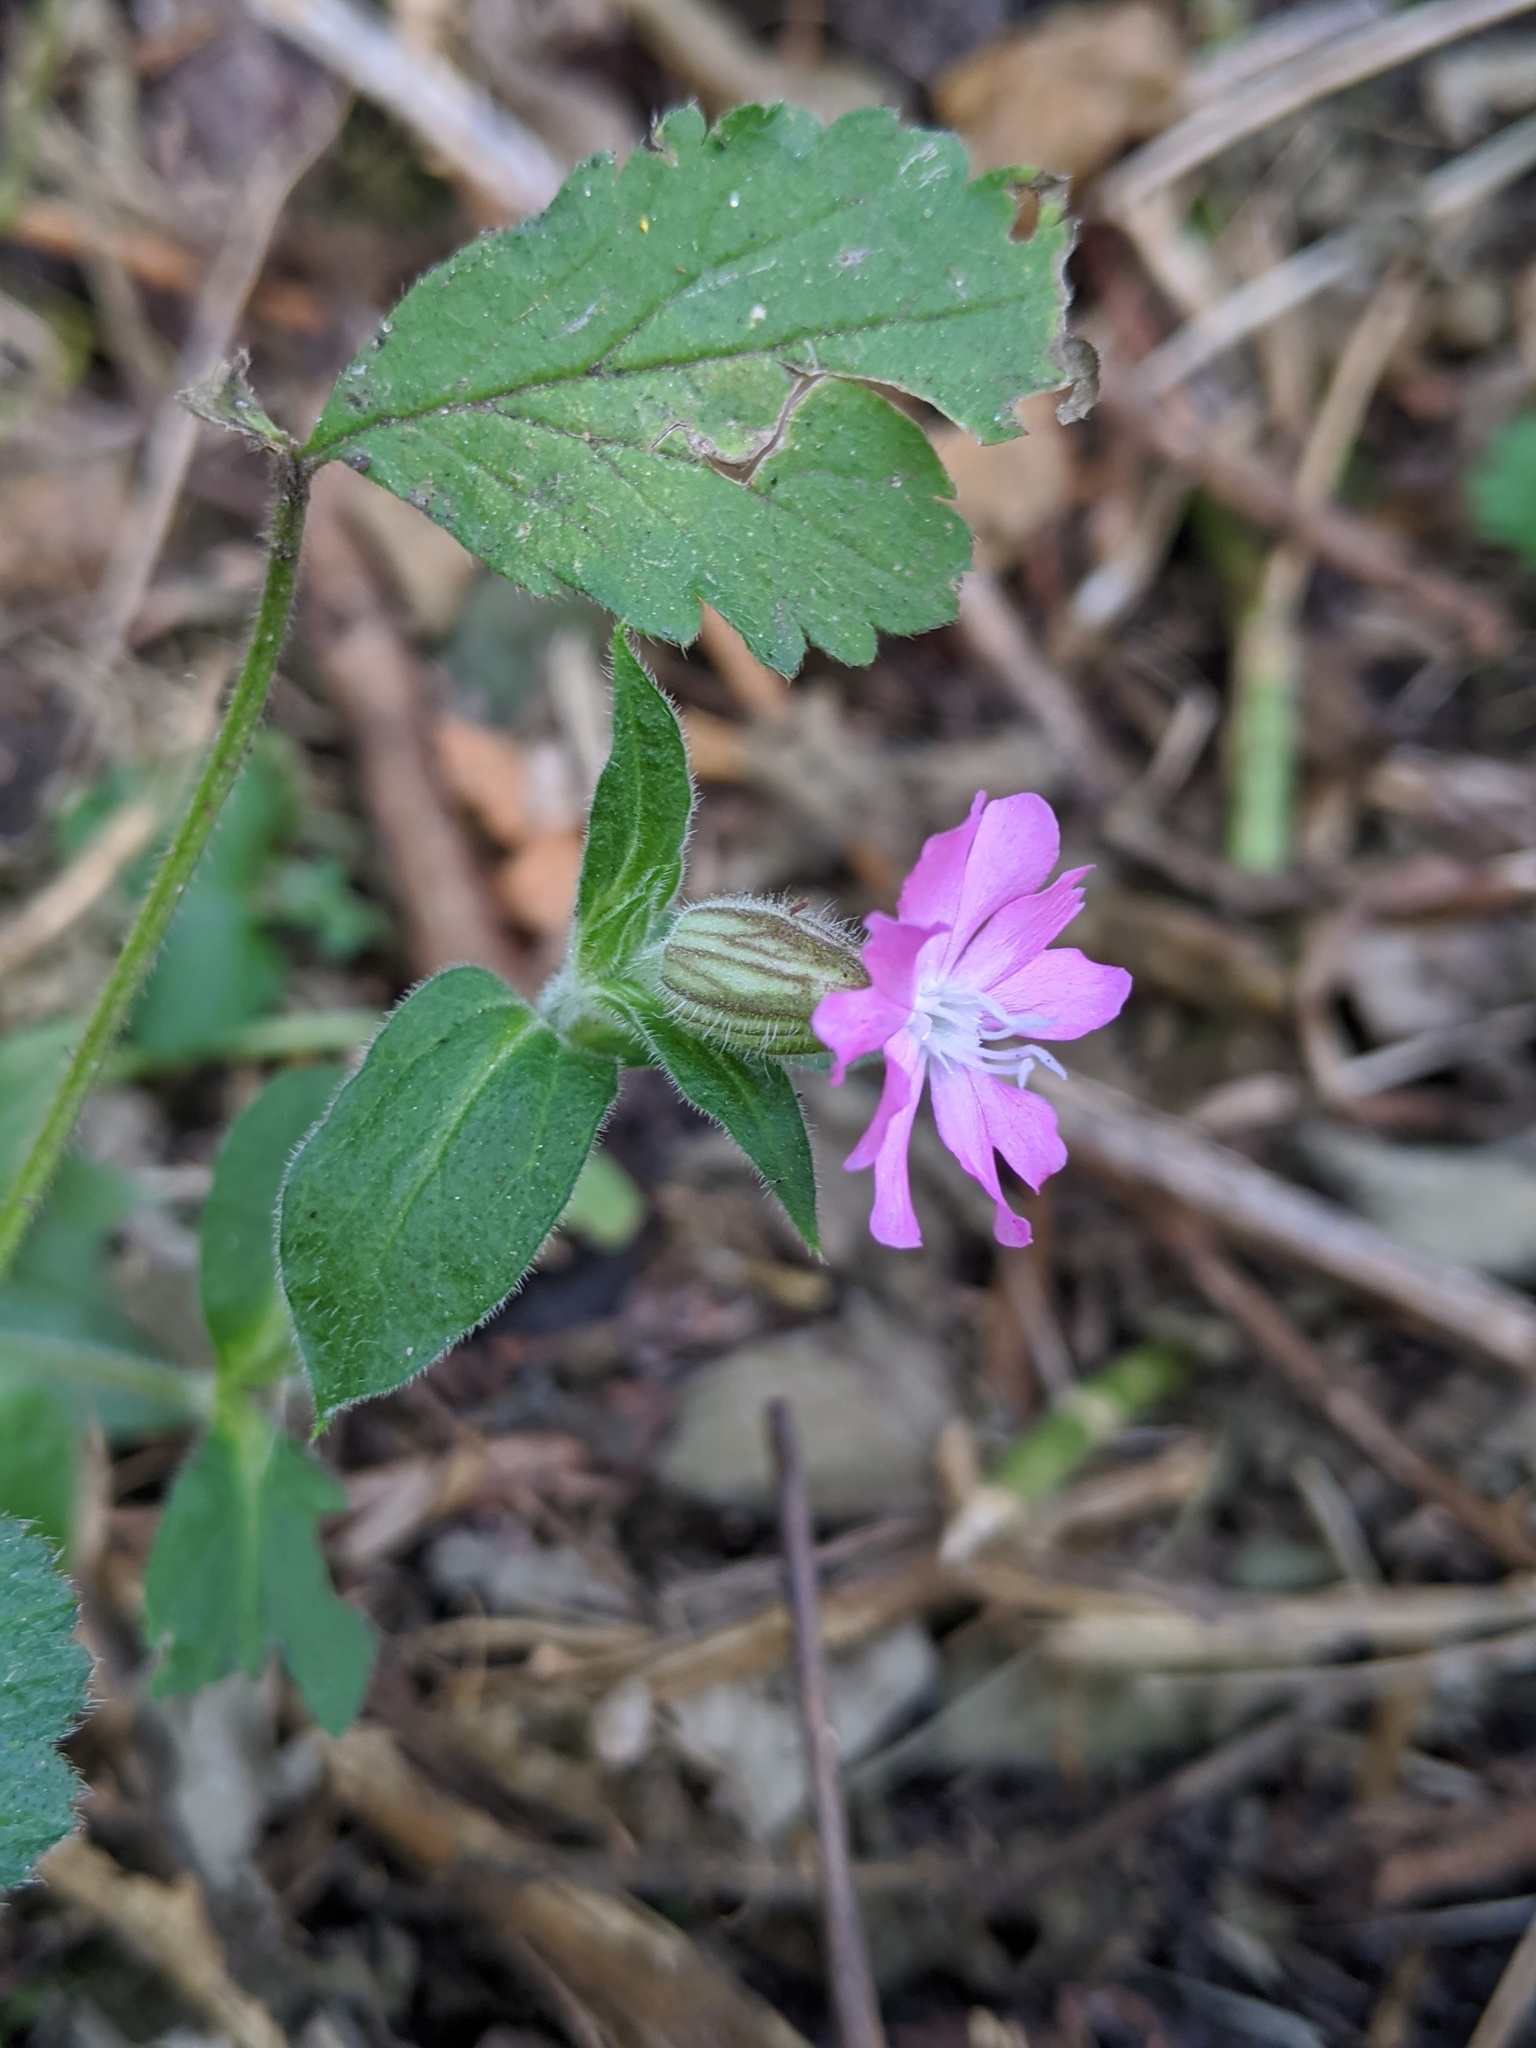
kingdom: Plantae
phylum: Tracheophyta
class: Magnoliopsida
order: Caryophyllales
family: Caryophyllaceae
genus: Silene
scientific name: Silene dioica
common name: Red campion
